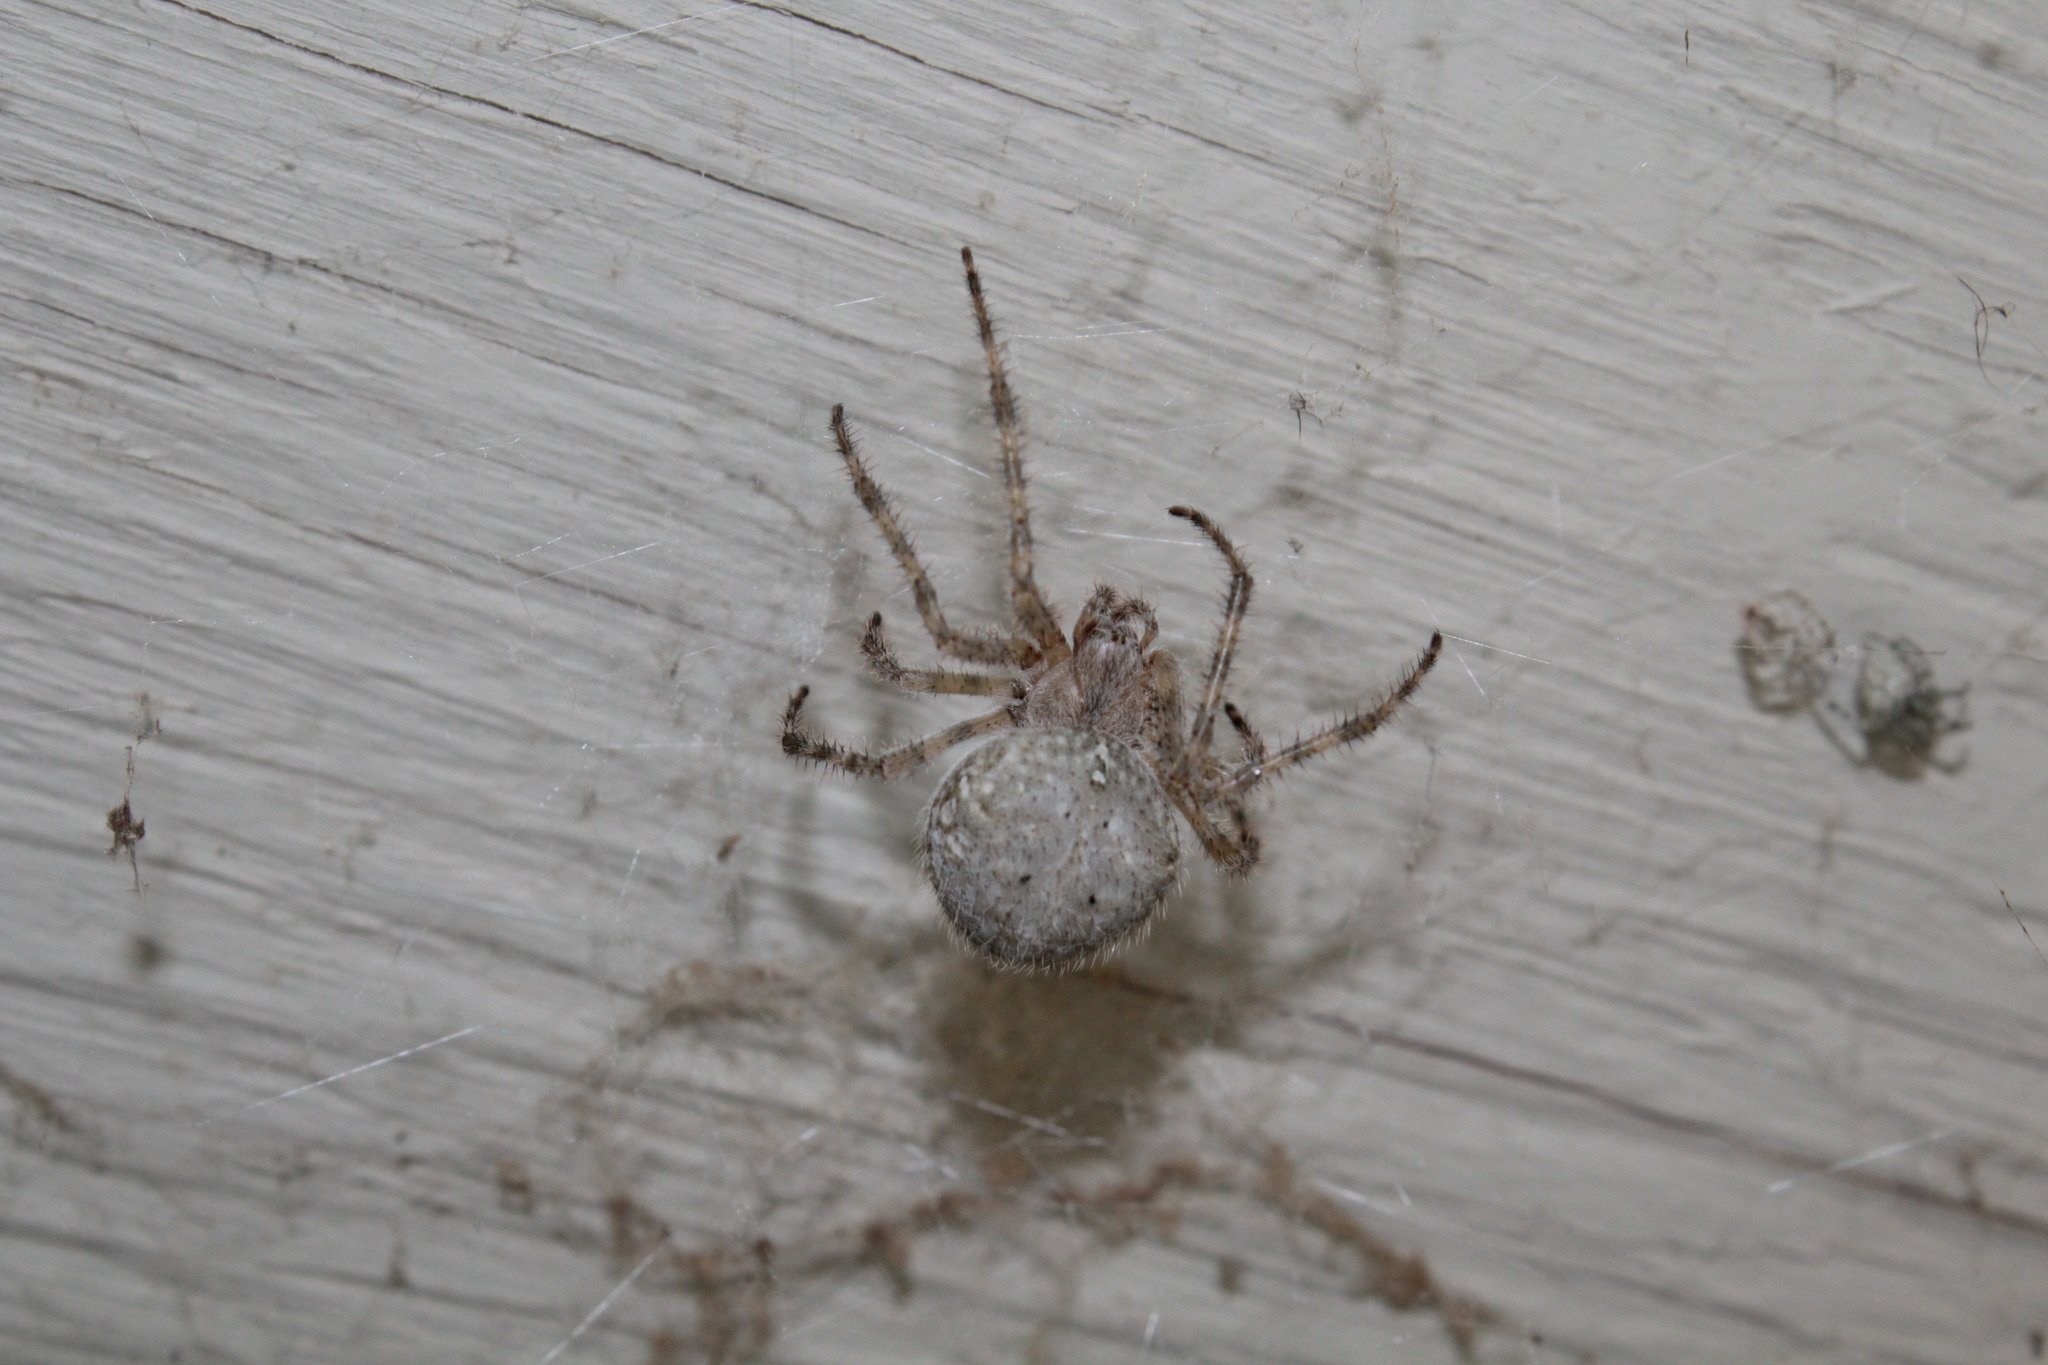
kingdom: Animalia
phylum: Arthropoda
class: Arachnida
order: Araneae
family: Araneidae
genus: Araneus
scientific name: Araneus cavaticus
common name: Barn orbweaver
